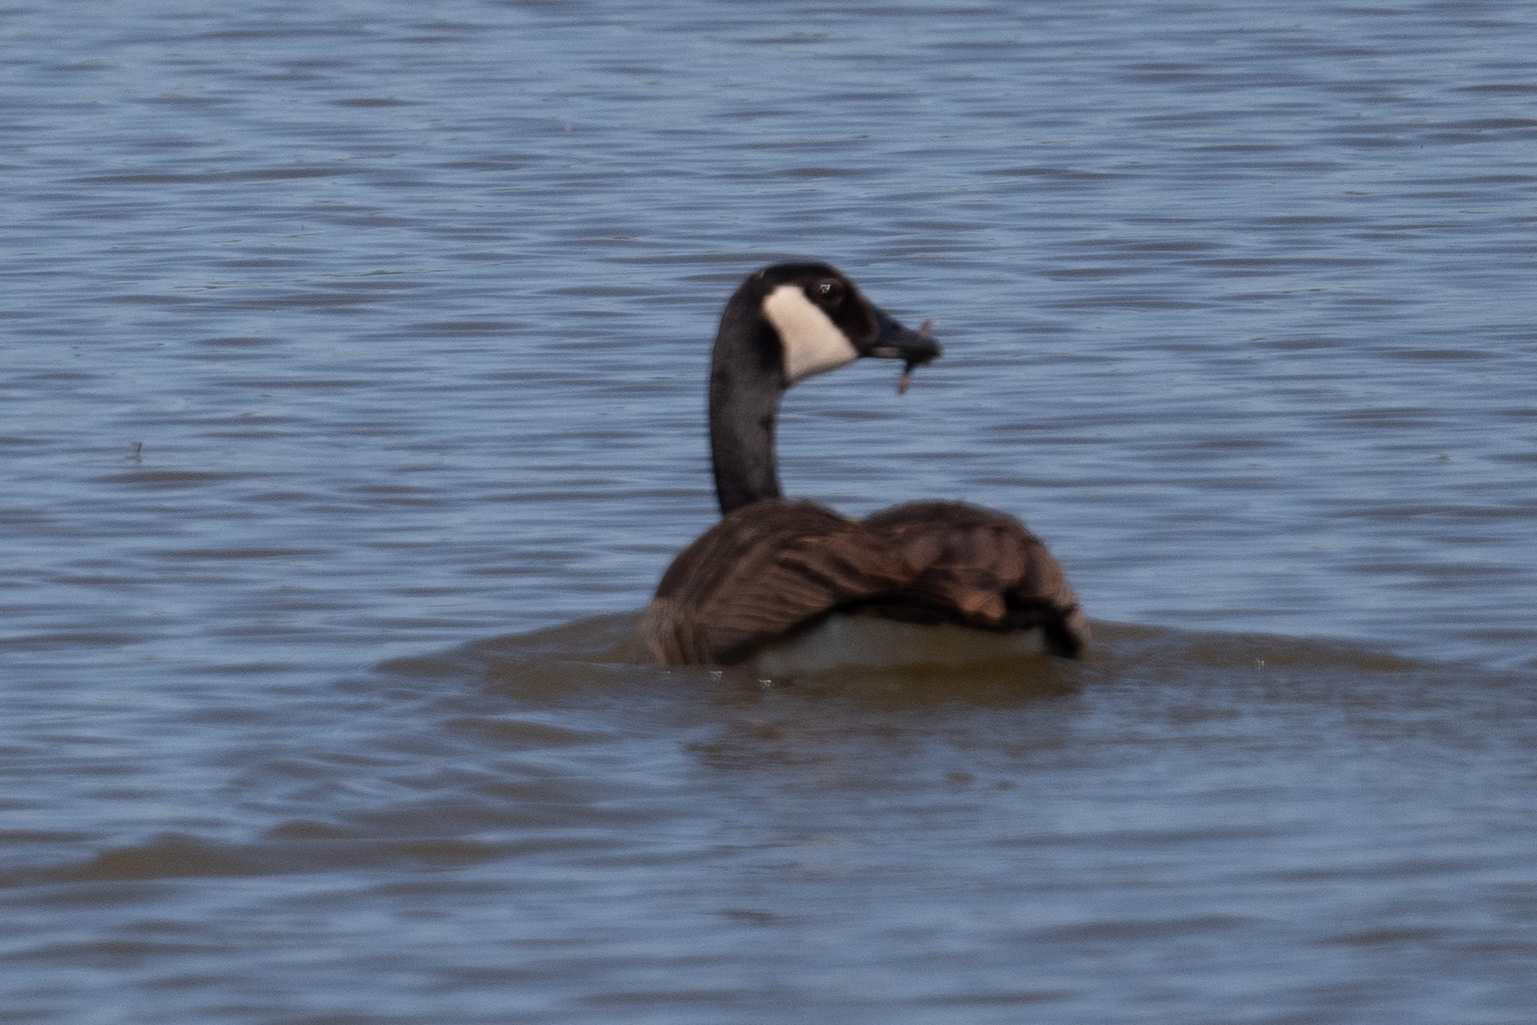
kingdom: Animalia
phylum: Chordata
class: Aves
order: Anseriformes
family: Anatidae
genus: Branta
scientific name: Branta canadensis
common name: Canada goose
